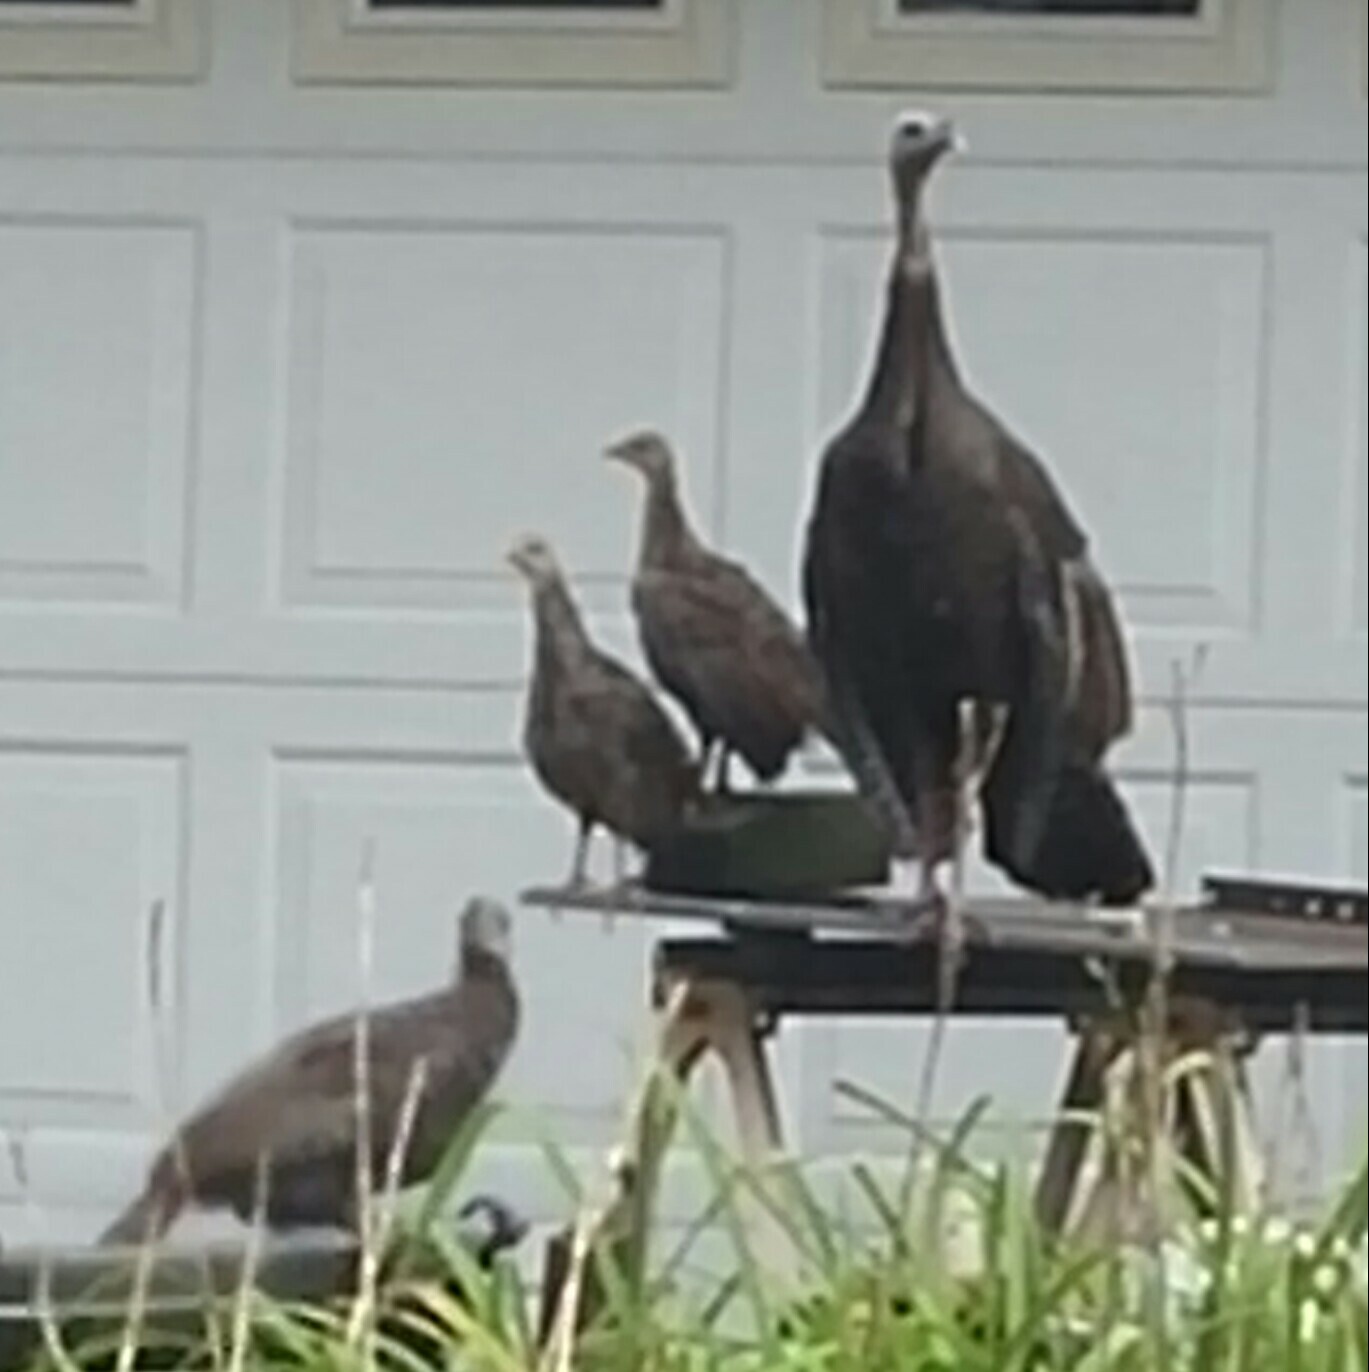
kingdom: Animalia
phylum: Chordata
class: Aves
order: Galliformes
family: Phasianidae
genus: Meleagris
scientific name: Meleagris gallopavo
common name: Wild turkey
